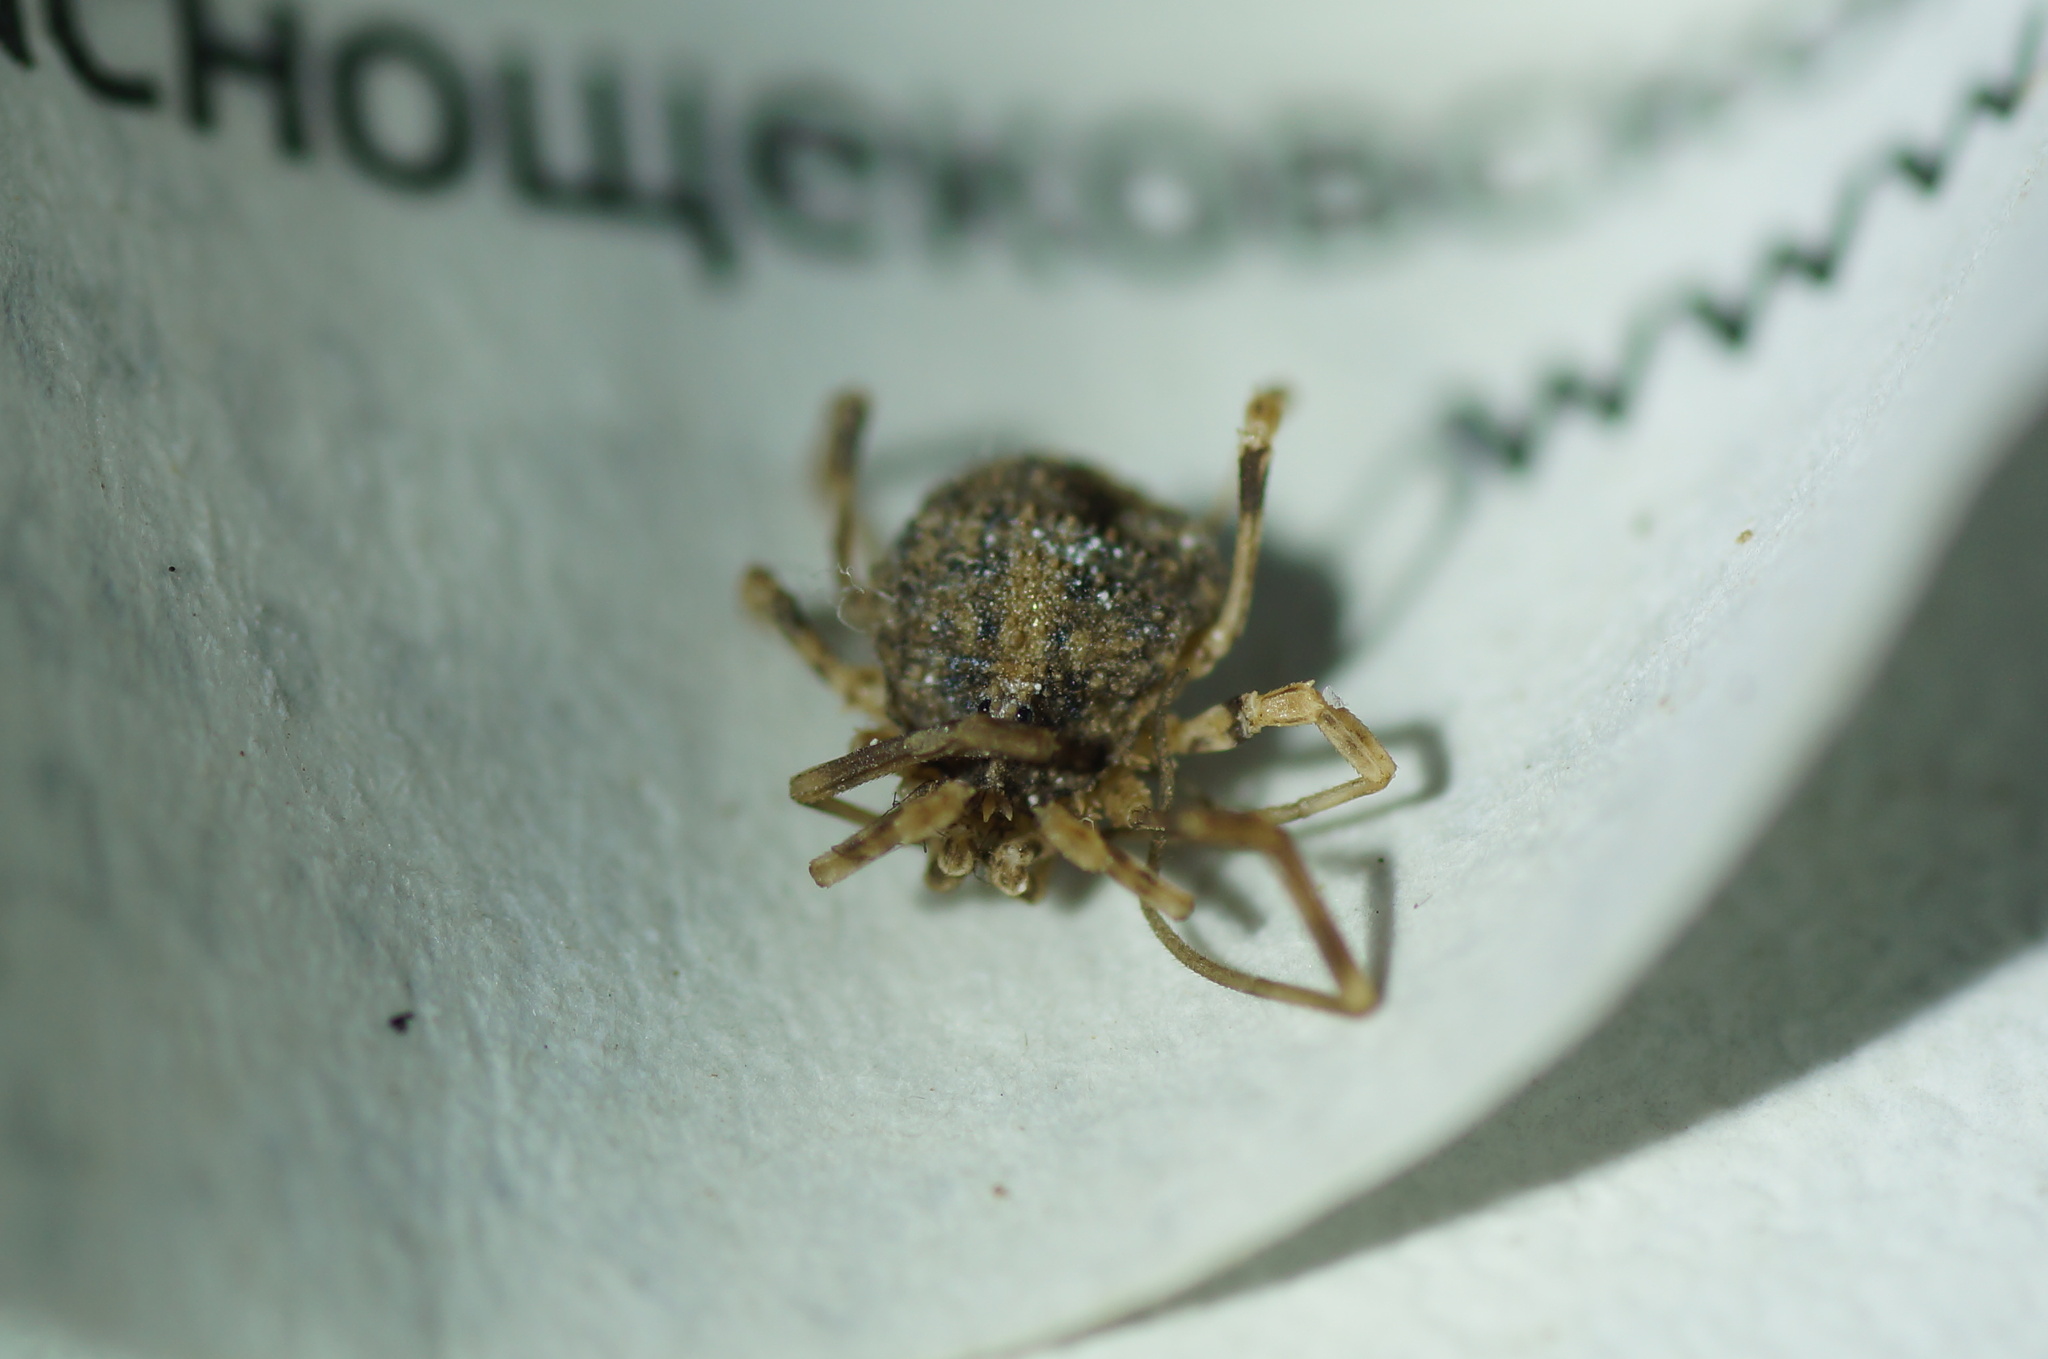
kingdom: Animalia
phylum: Arthropoda
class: Arachnida
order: Opiliones
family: Phalangiidae
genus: Odiellus
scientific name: Odiellus lendlii
